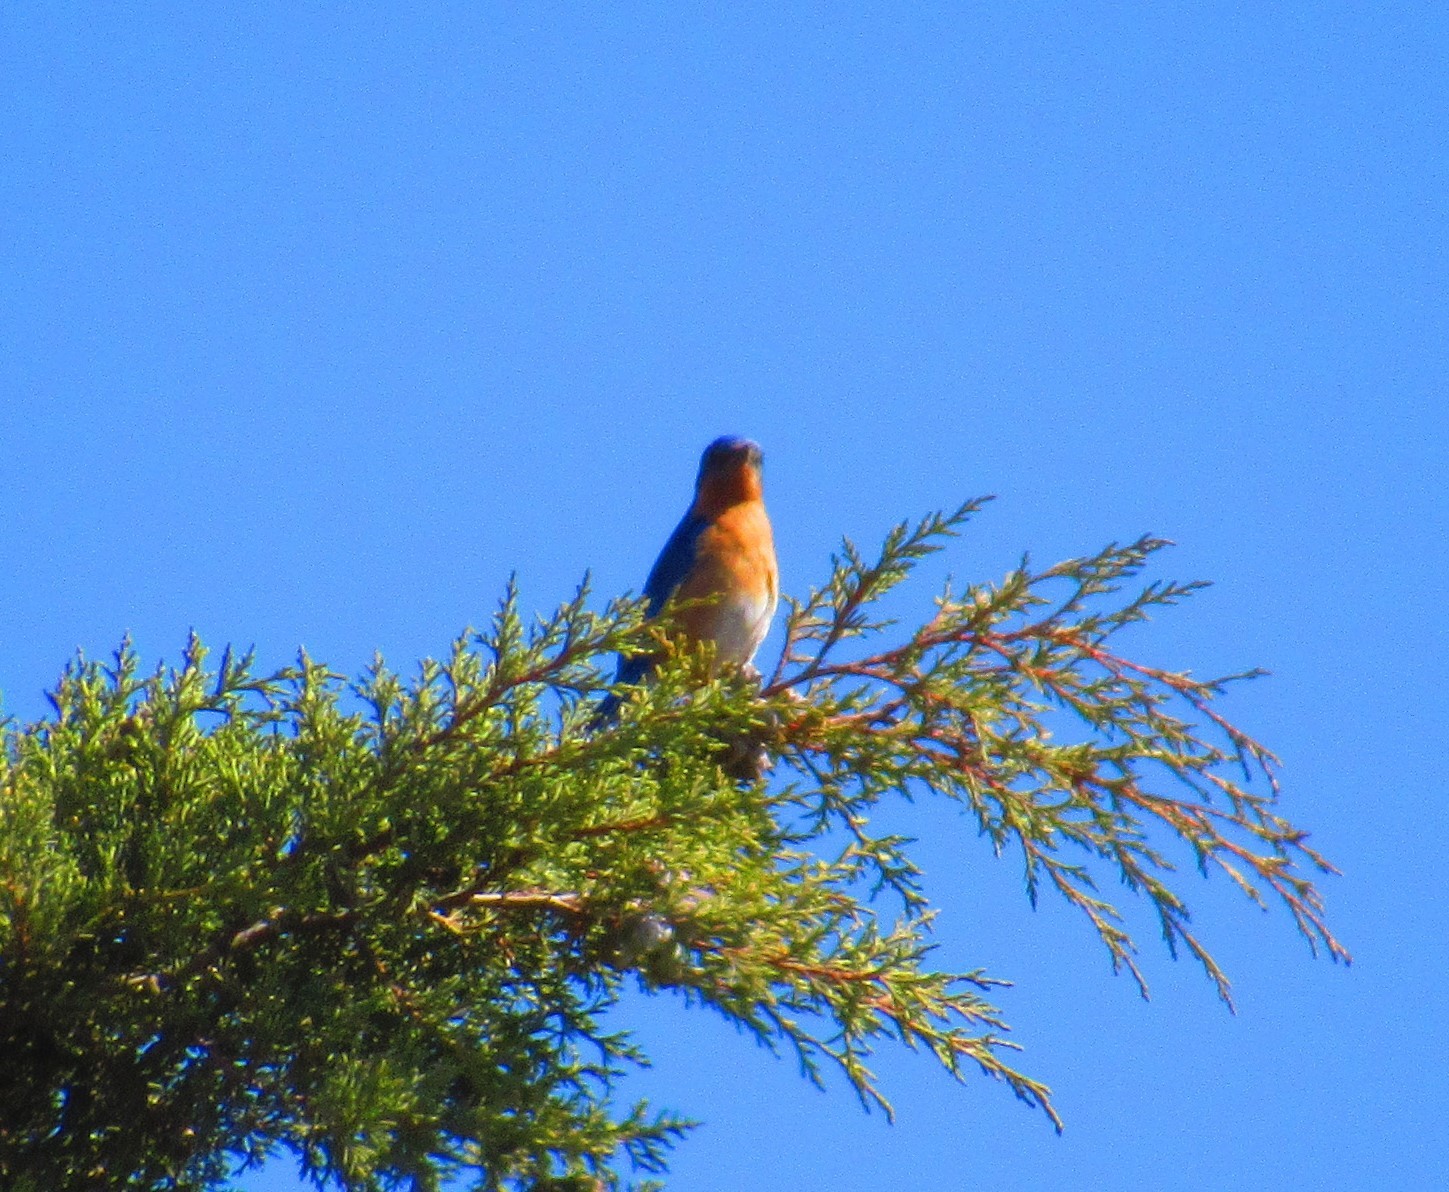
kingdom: Animalia
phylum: Chordata
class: Aves
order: Passeriformes
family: Turdidae
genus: Sialia
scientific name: Sialia sialis
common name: Eastern bluebird
